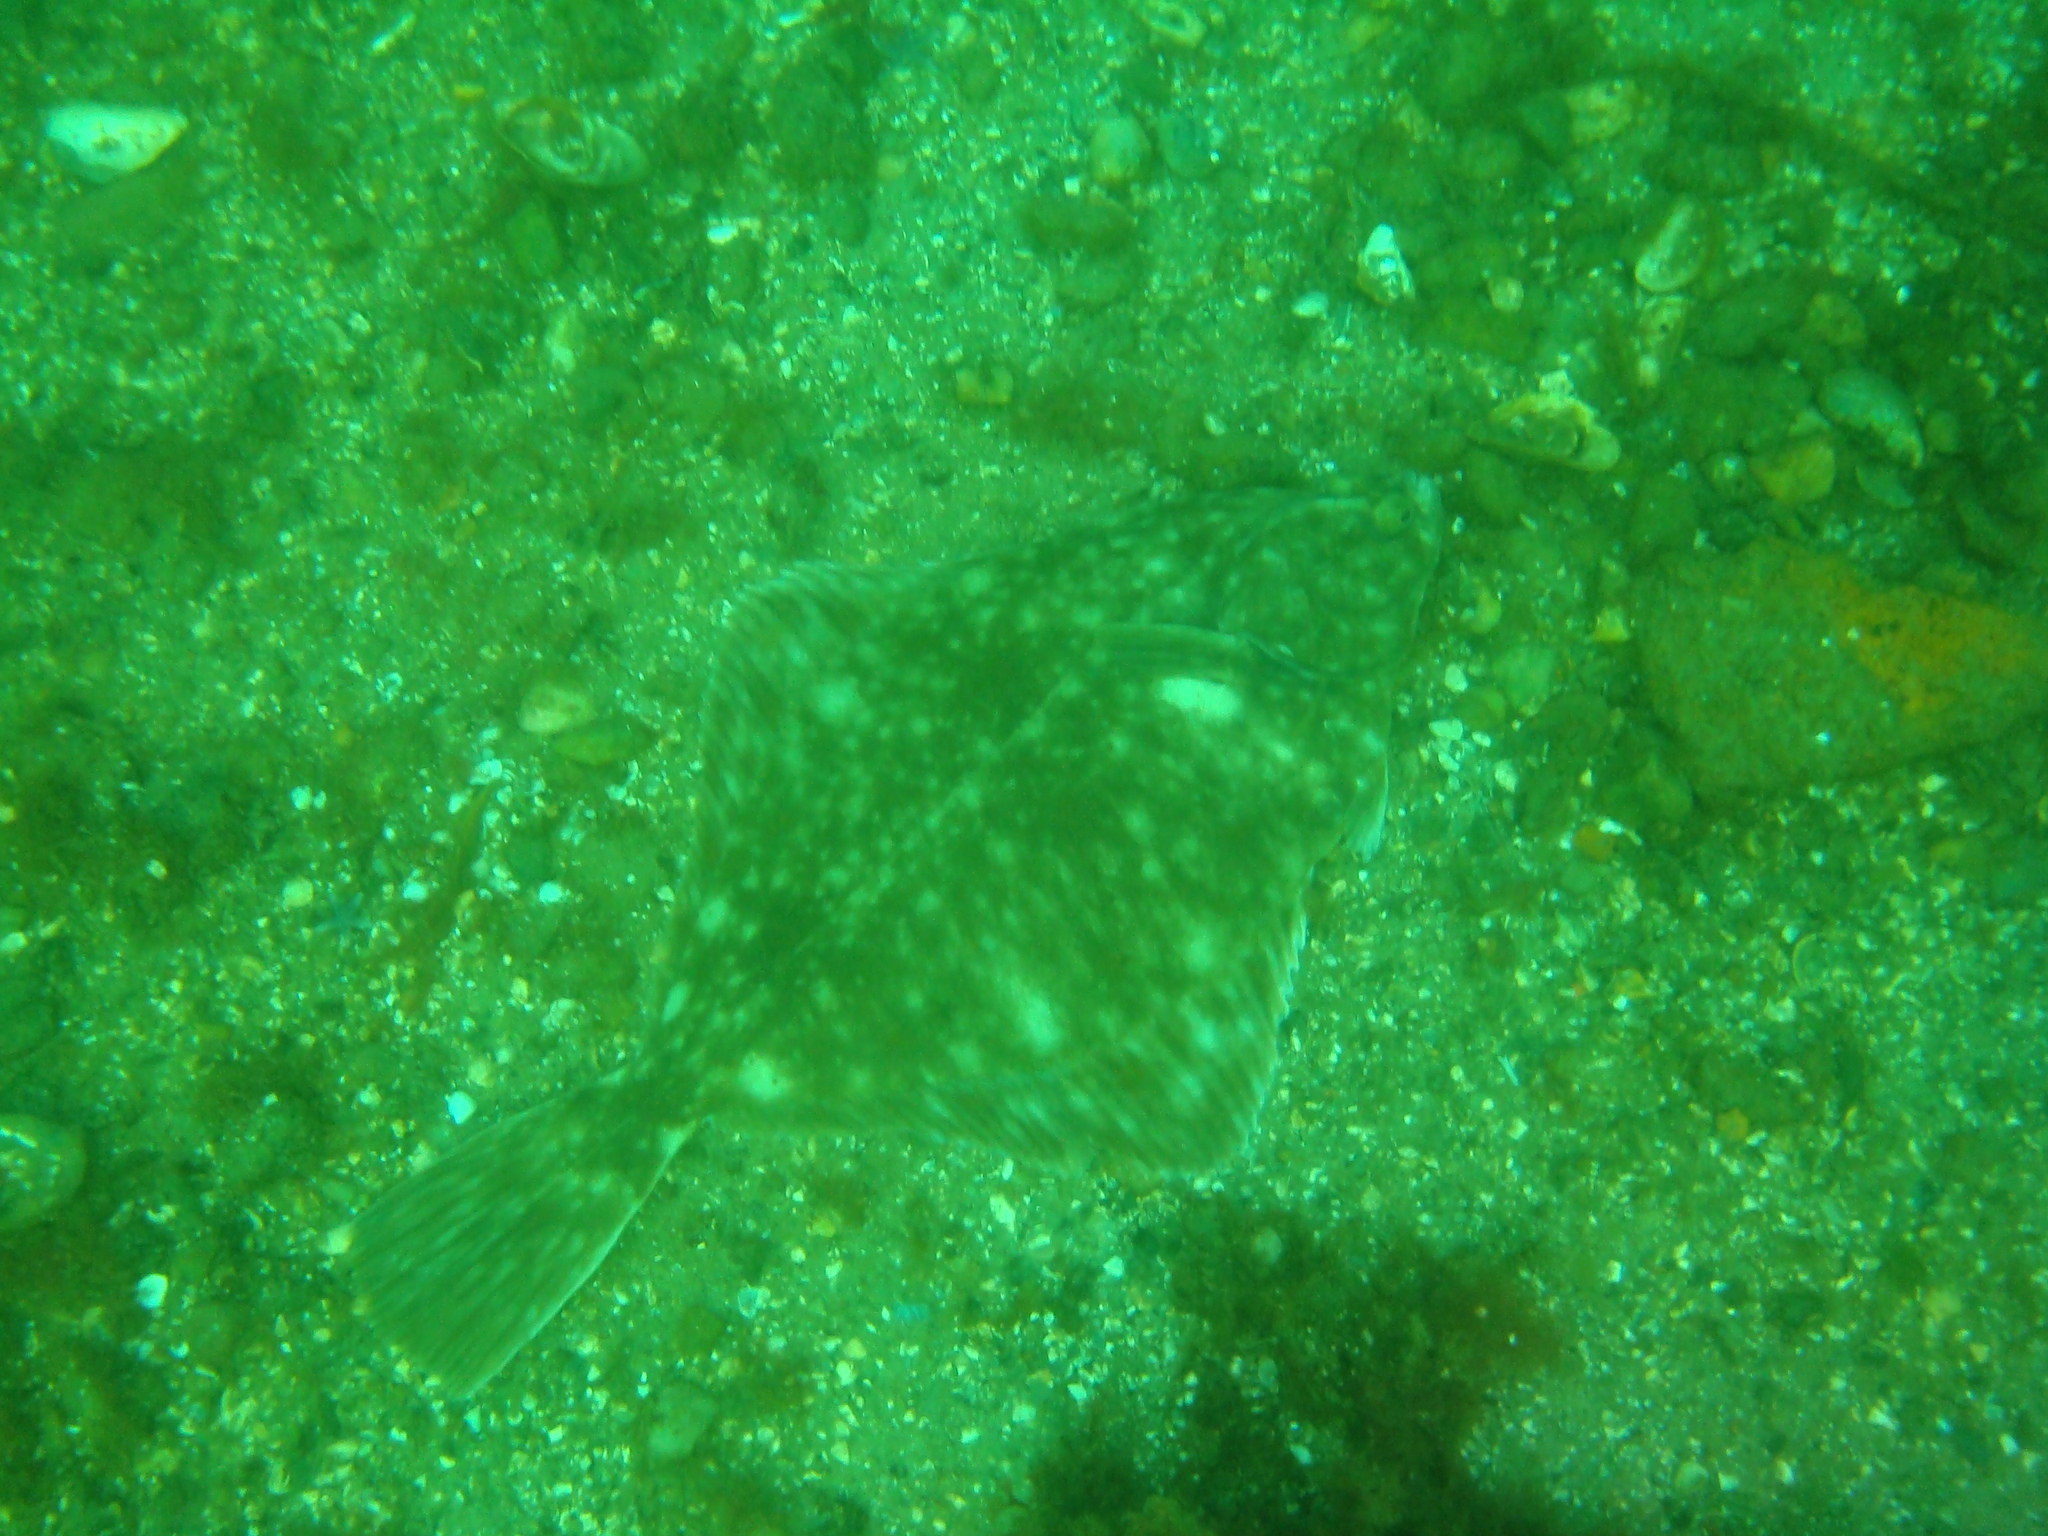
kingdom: Animalia
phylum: Chordata
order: Pleuronectiformes
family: Pleuronectidae
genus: Platichthys
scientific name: Platichthys flesus
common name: European flounder
